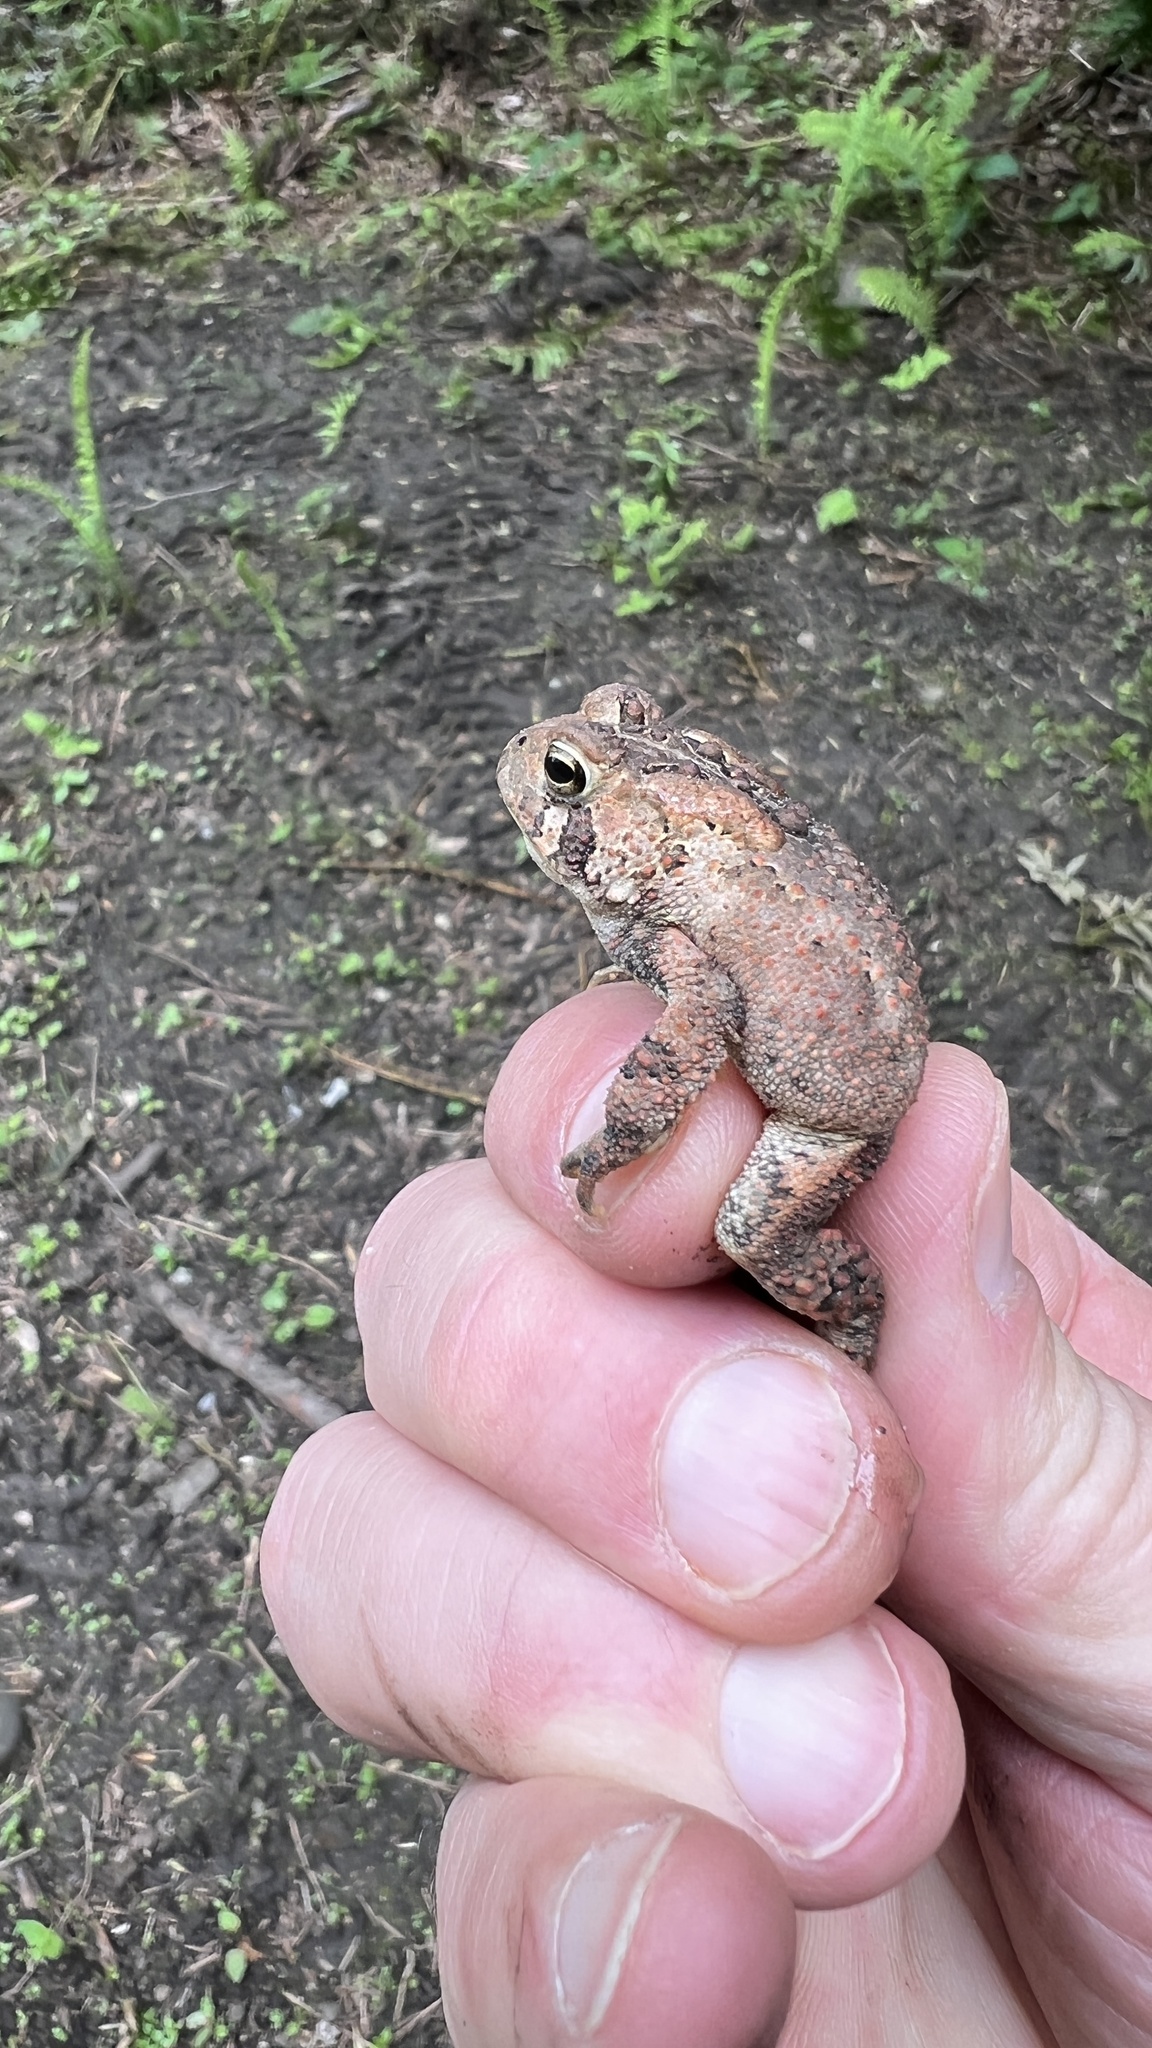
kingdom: Animalia
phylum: Chordata
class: Amphibia
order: Anura
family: Bufonidae
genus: Anaxyrus
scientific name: Anaxyrus americanus
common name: American toad
